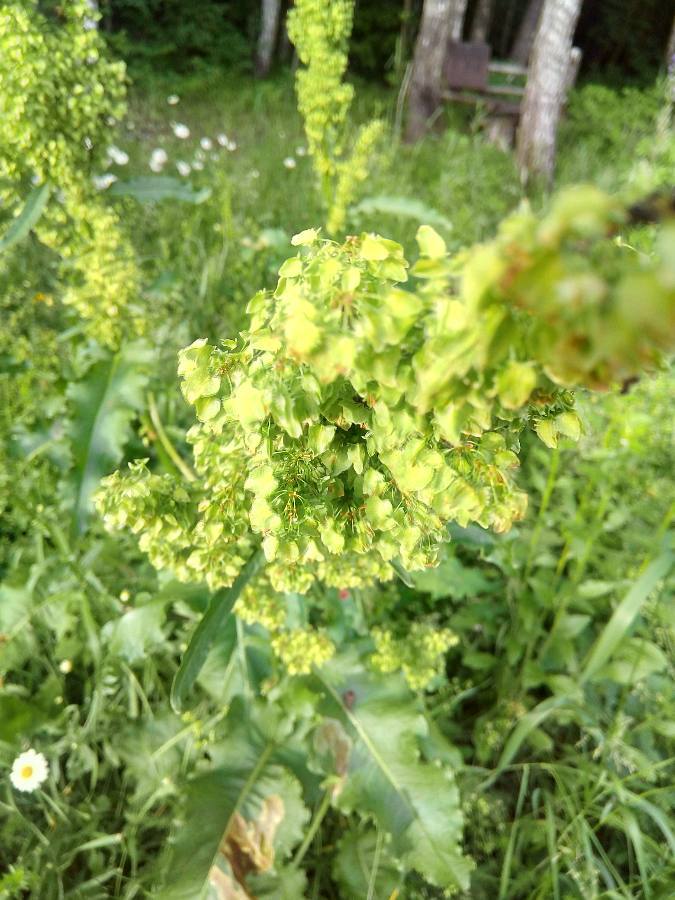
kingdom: Plantae
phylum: Tracheophyta
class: Magnoliopsida
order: Caryophyllales
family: Polygonaceae
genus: Rumex
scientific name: Rumex confertus
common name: Russian dock
